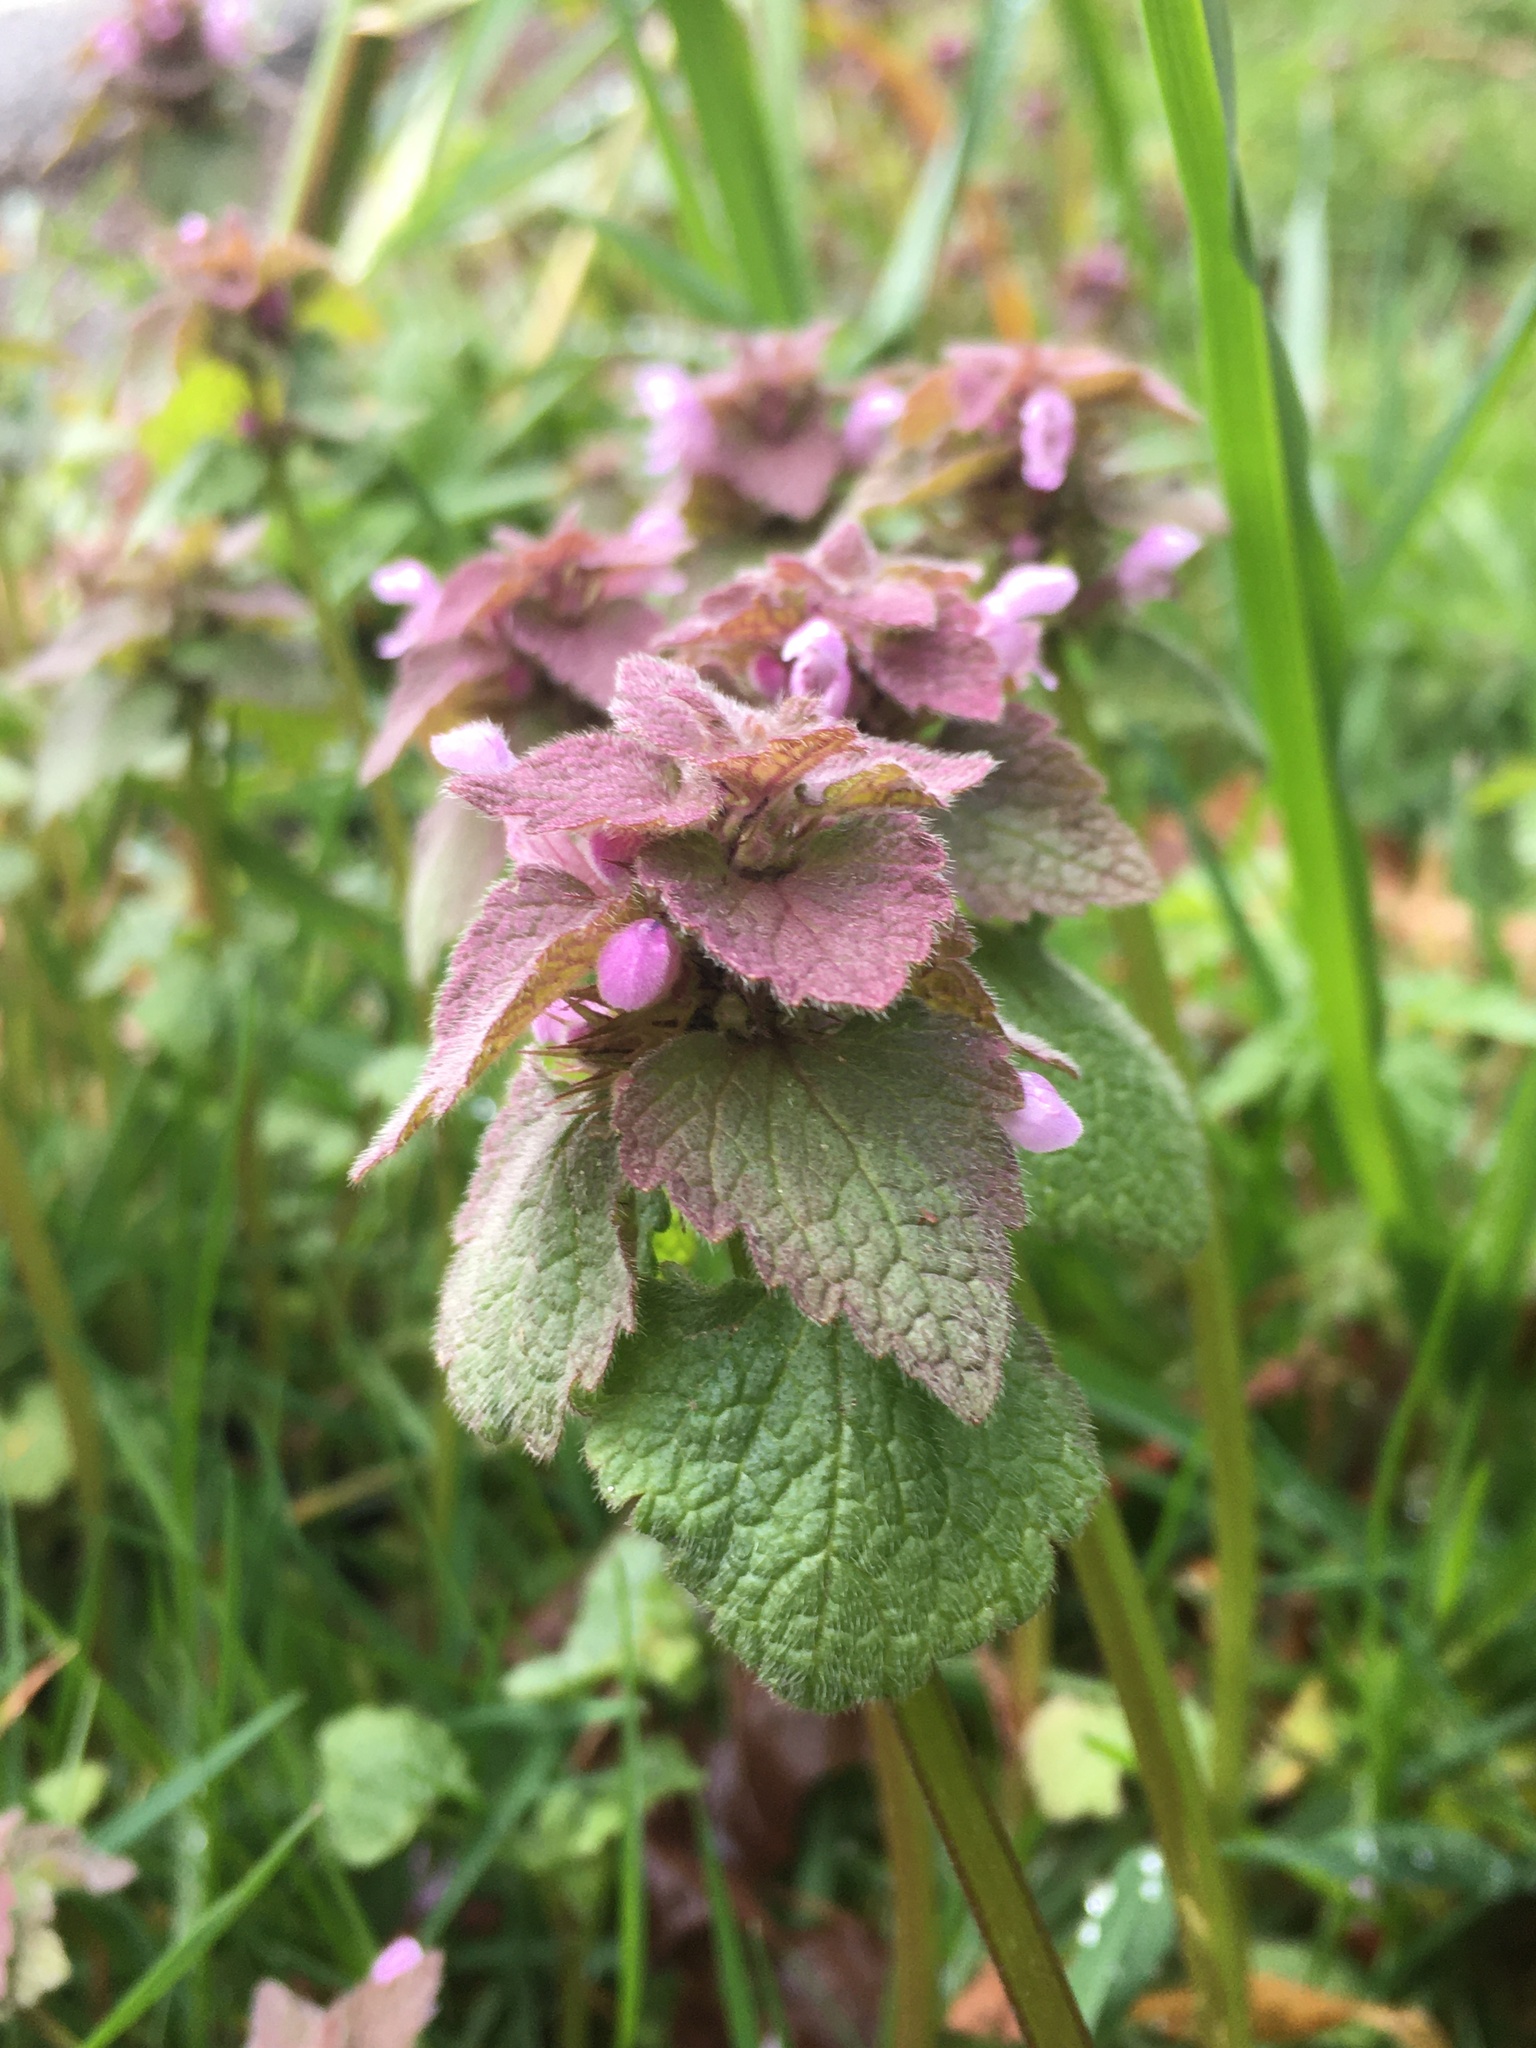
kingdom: Plantae
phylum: Tracheophyta
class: Magnoliopsida
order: Lamiales
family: Lamiaceae
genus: Lamium
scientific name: Lamium purpureum
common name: Red dead-nettle
